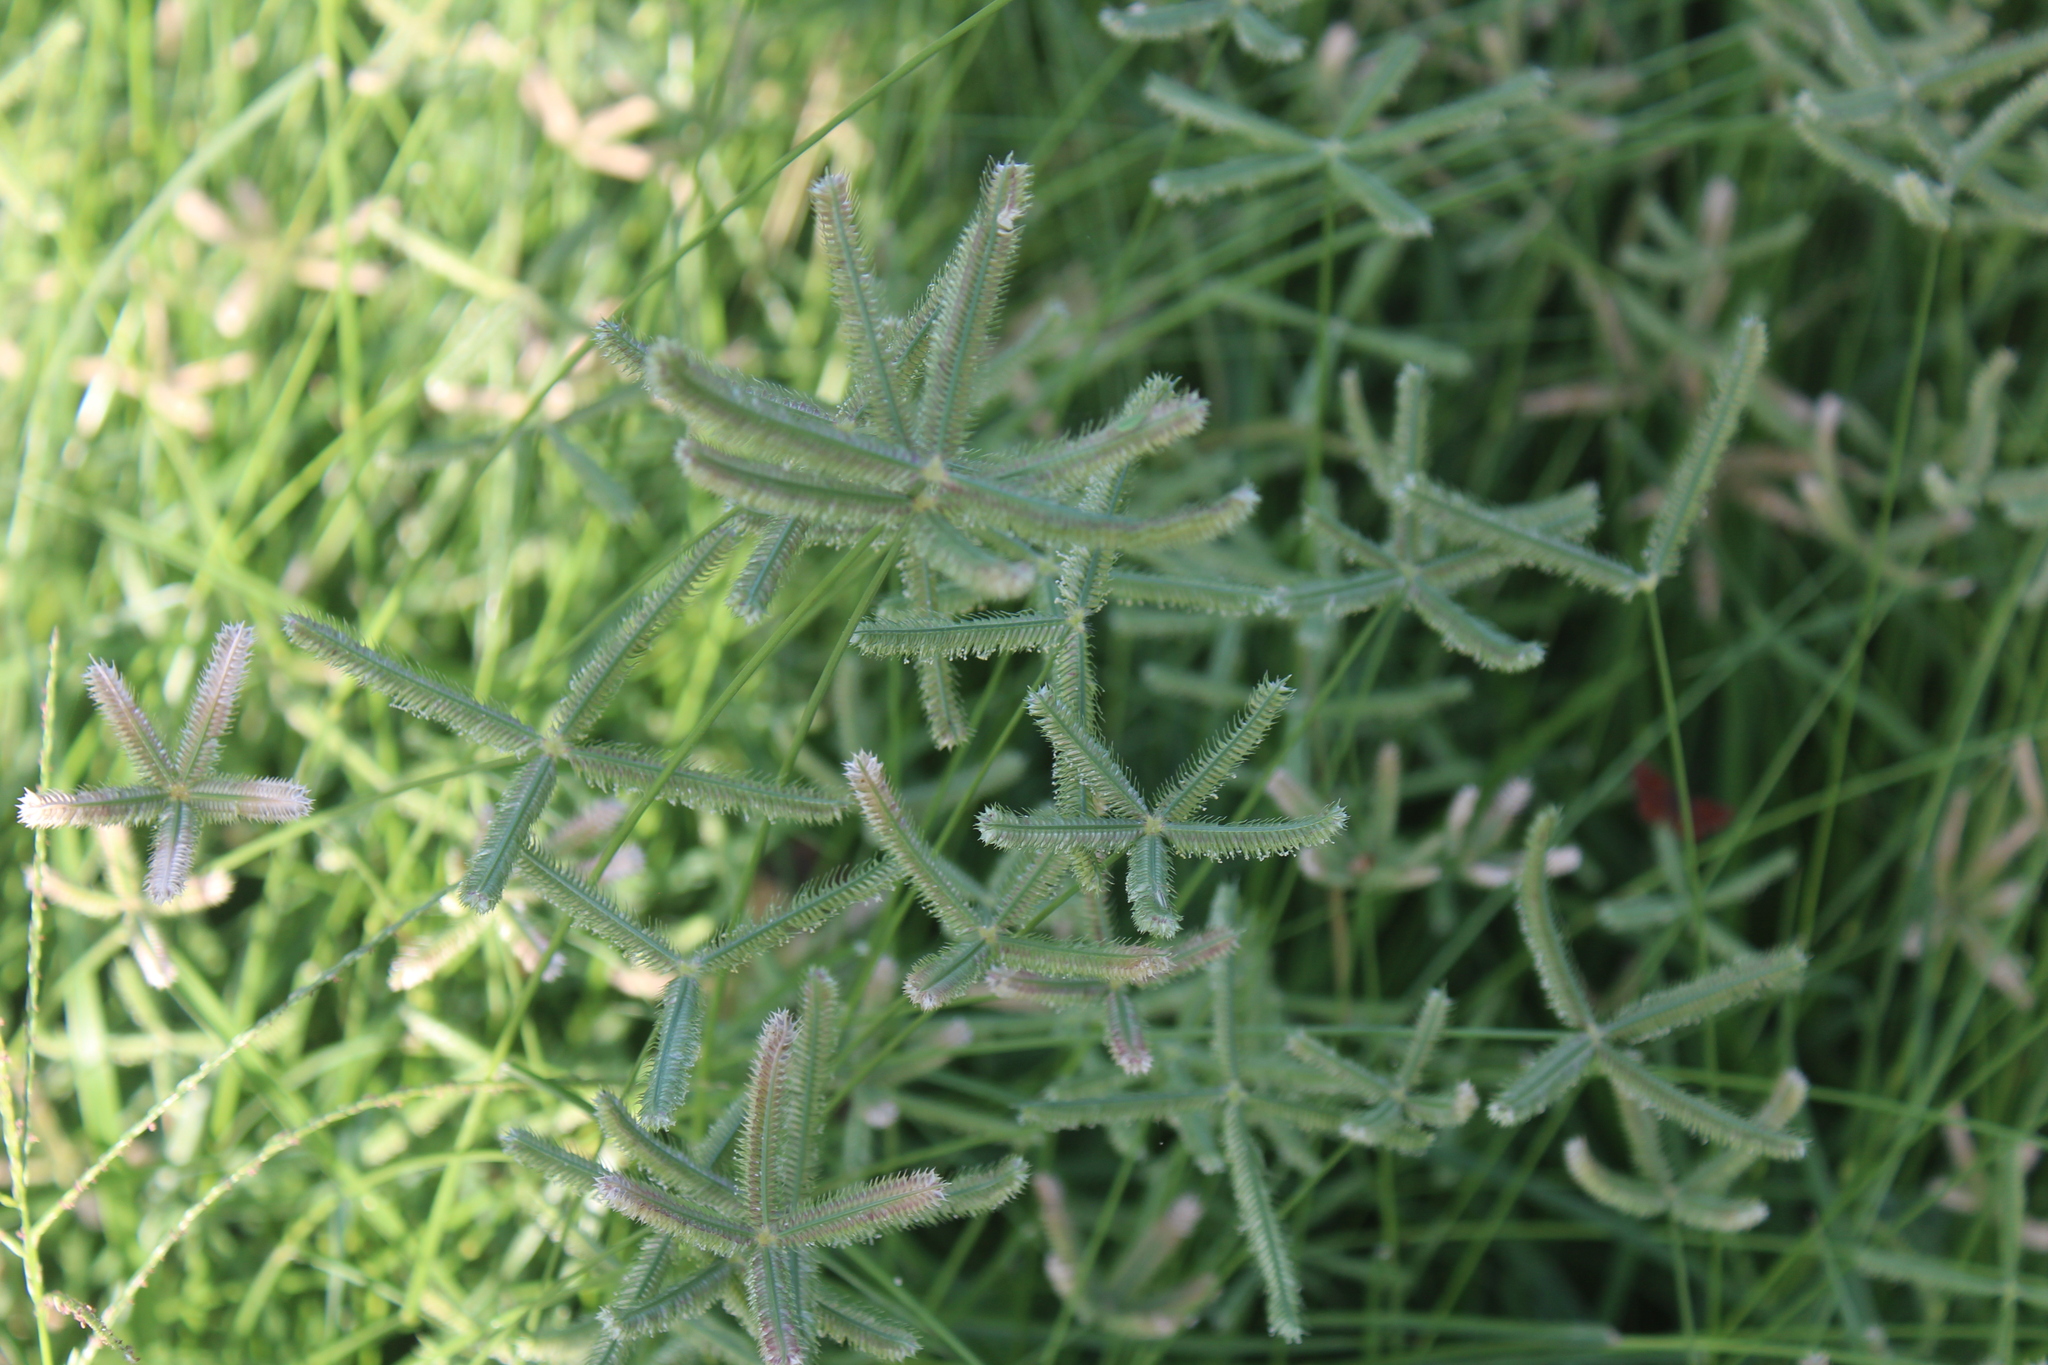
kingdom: Plantae
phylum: Tracheophyta
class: Liliopsida
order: Poales
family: Poaceae
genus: Dactyloctenium
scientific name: Dactyloctenium aegyptium
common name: Egyptian grass
